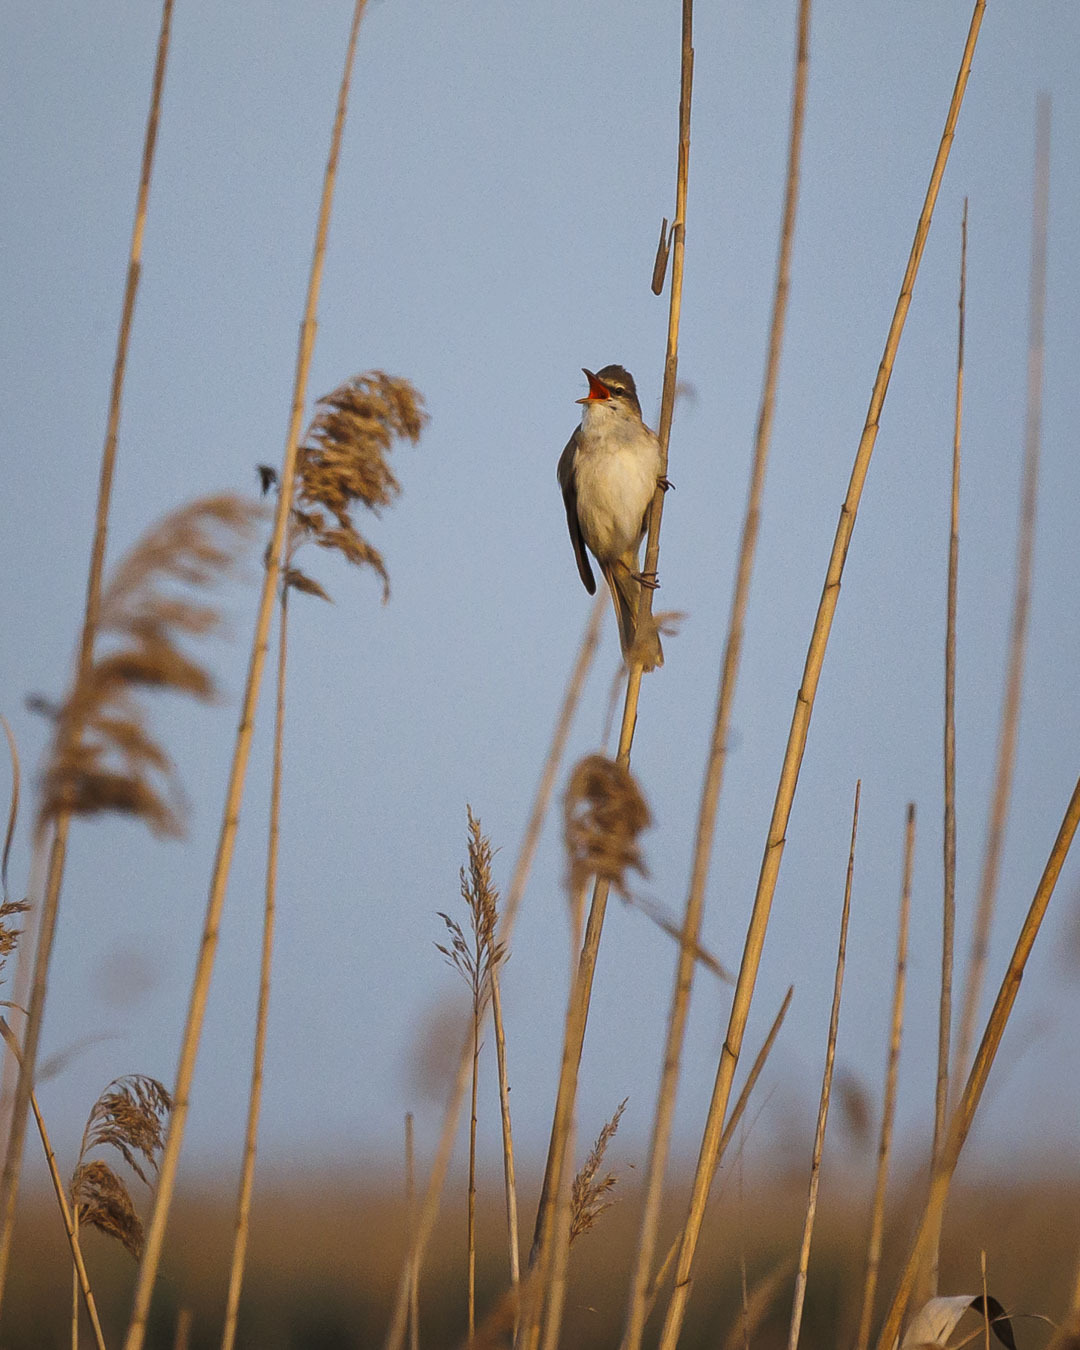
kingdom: Animalia
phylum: Chordata
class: Aves
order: Passeriformes
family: Acrocephalidae
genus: Acrocephalus
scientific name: Acrocephalus arundinaceus
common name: Great reed warbler
